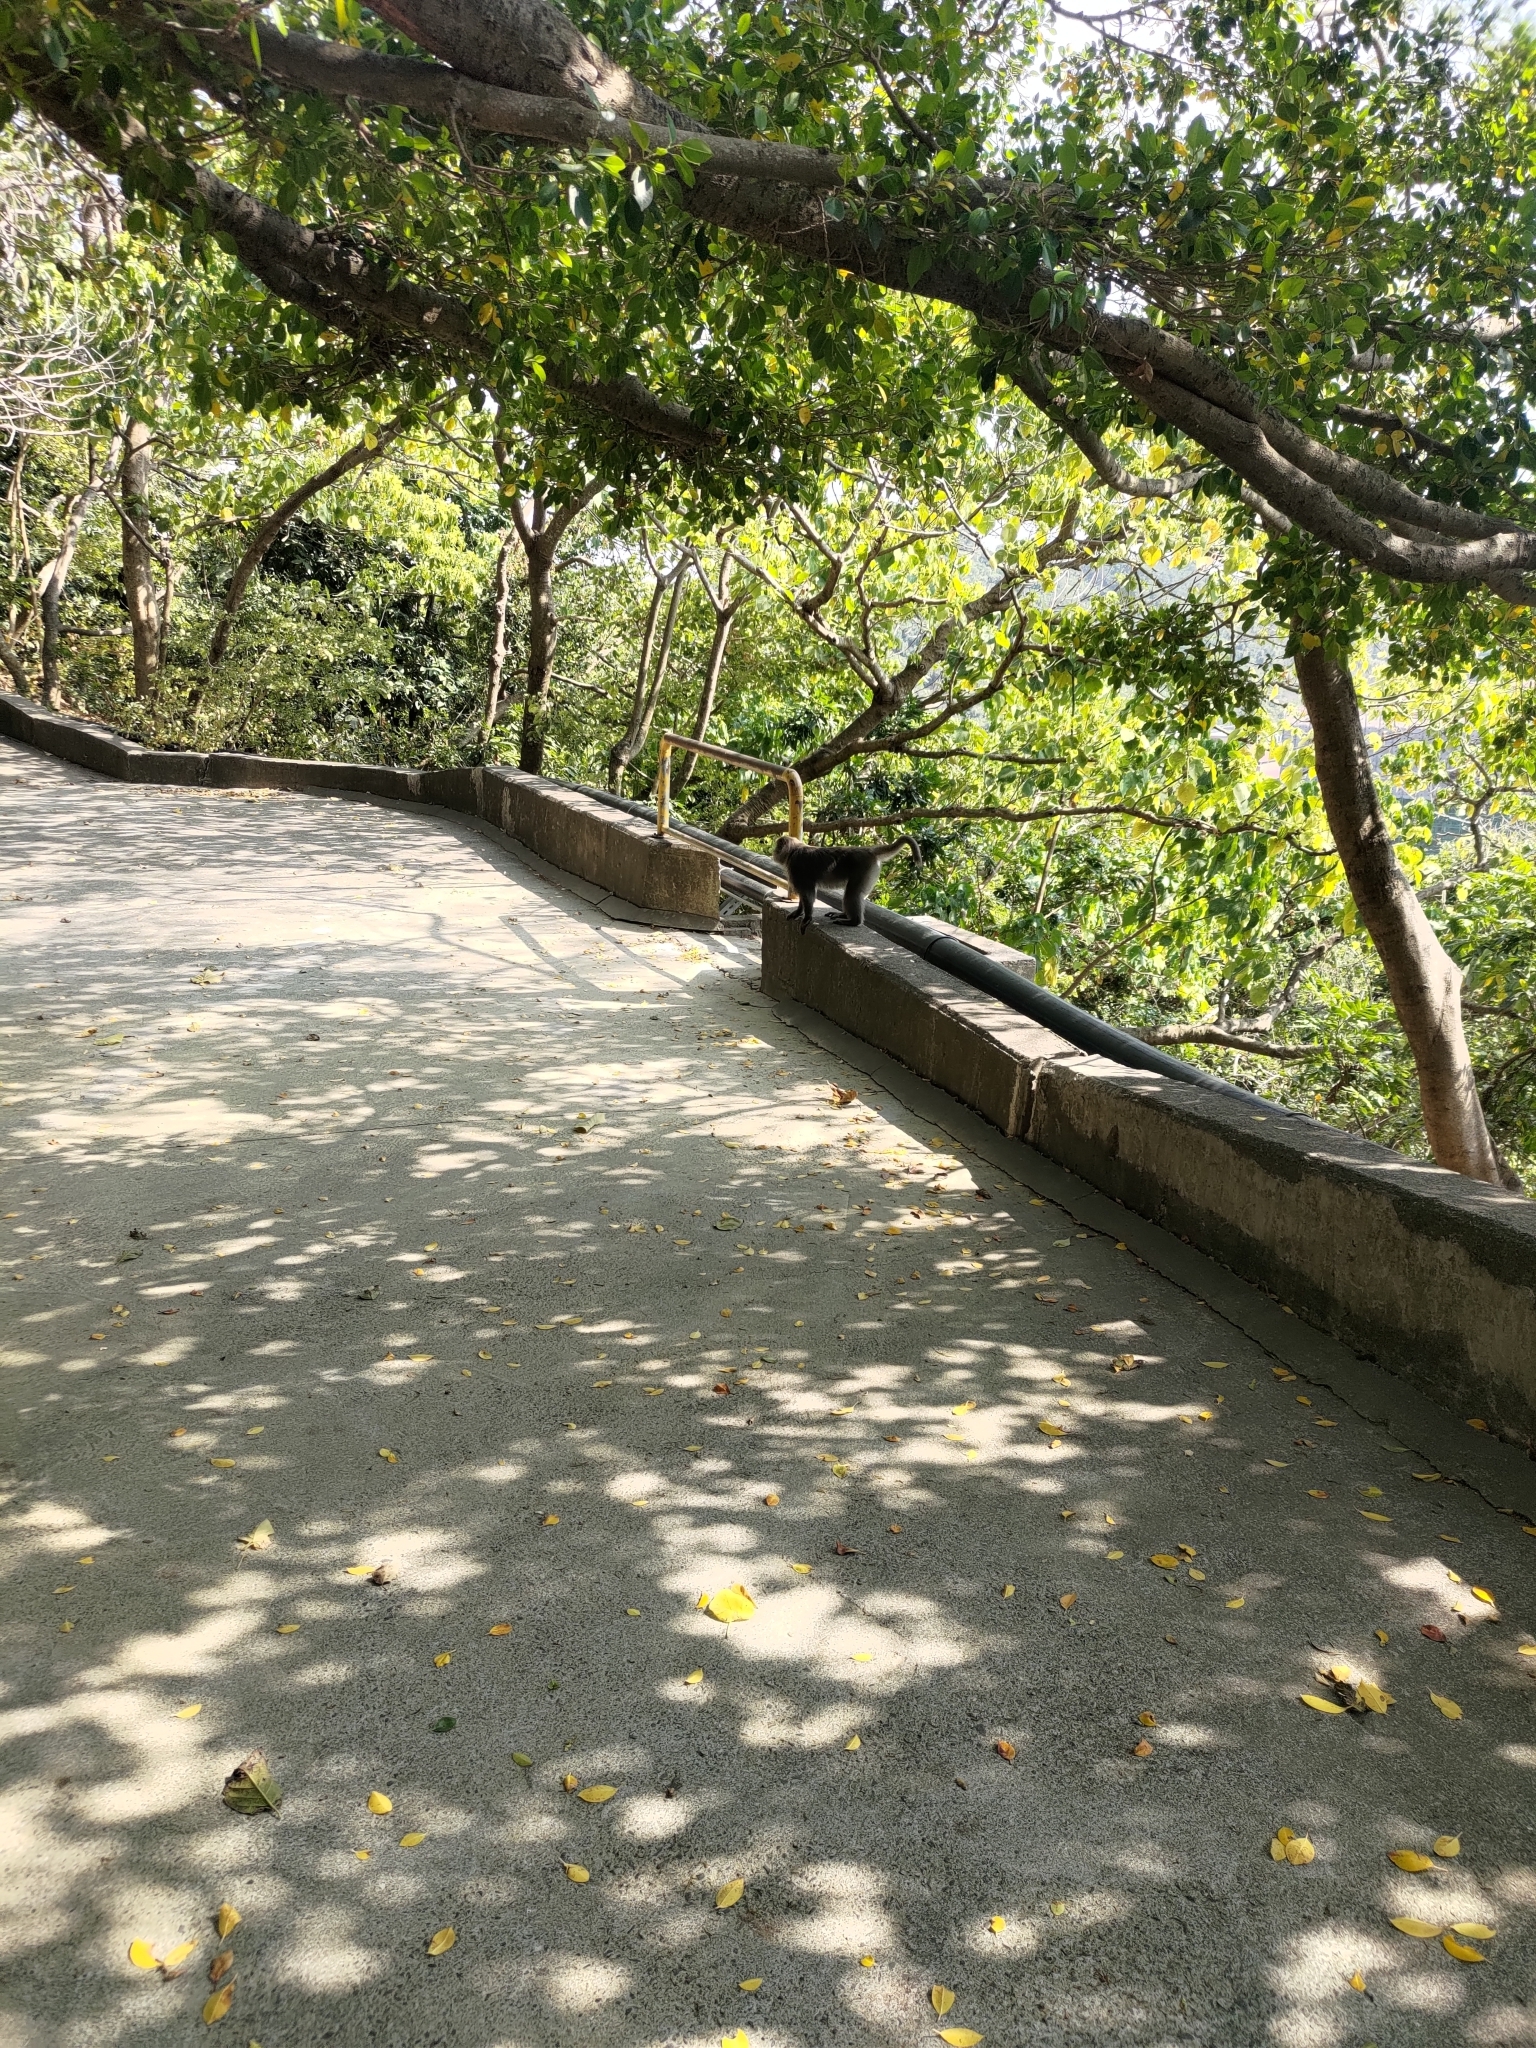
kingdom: Animalia
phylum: Chordata
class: Mammalia
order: Primates
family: Cercopithecidae
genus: Macaca
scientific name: Macaca cyclopis
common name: Formosan rock macaque
